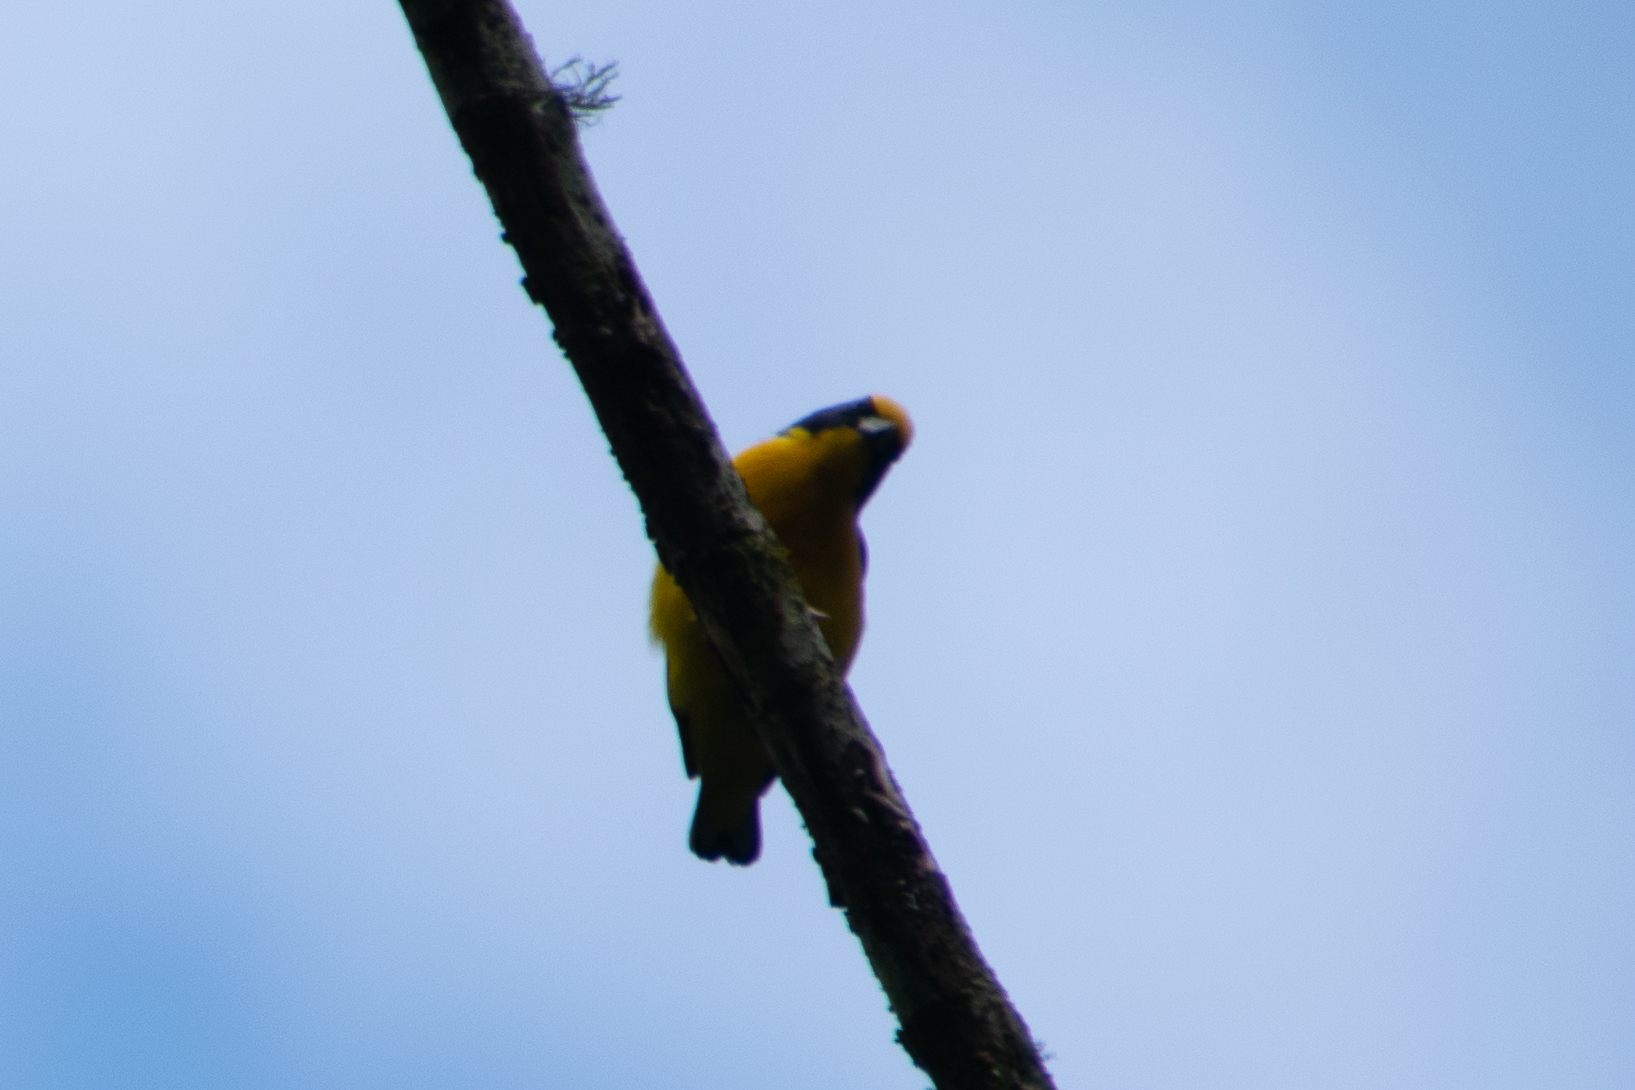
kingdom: Animalia
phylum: Chordata
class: Aves
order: Passeriformes
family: Fringillidae
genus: Euphonia
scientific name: Euphonia laniirostris
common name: Thick-billed euphonia
